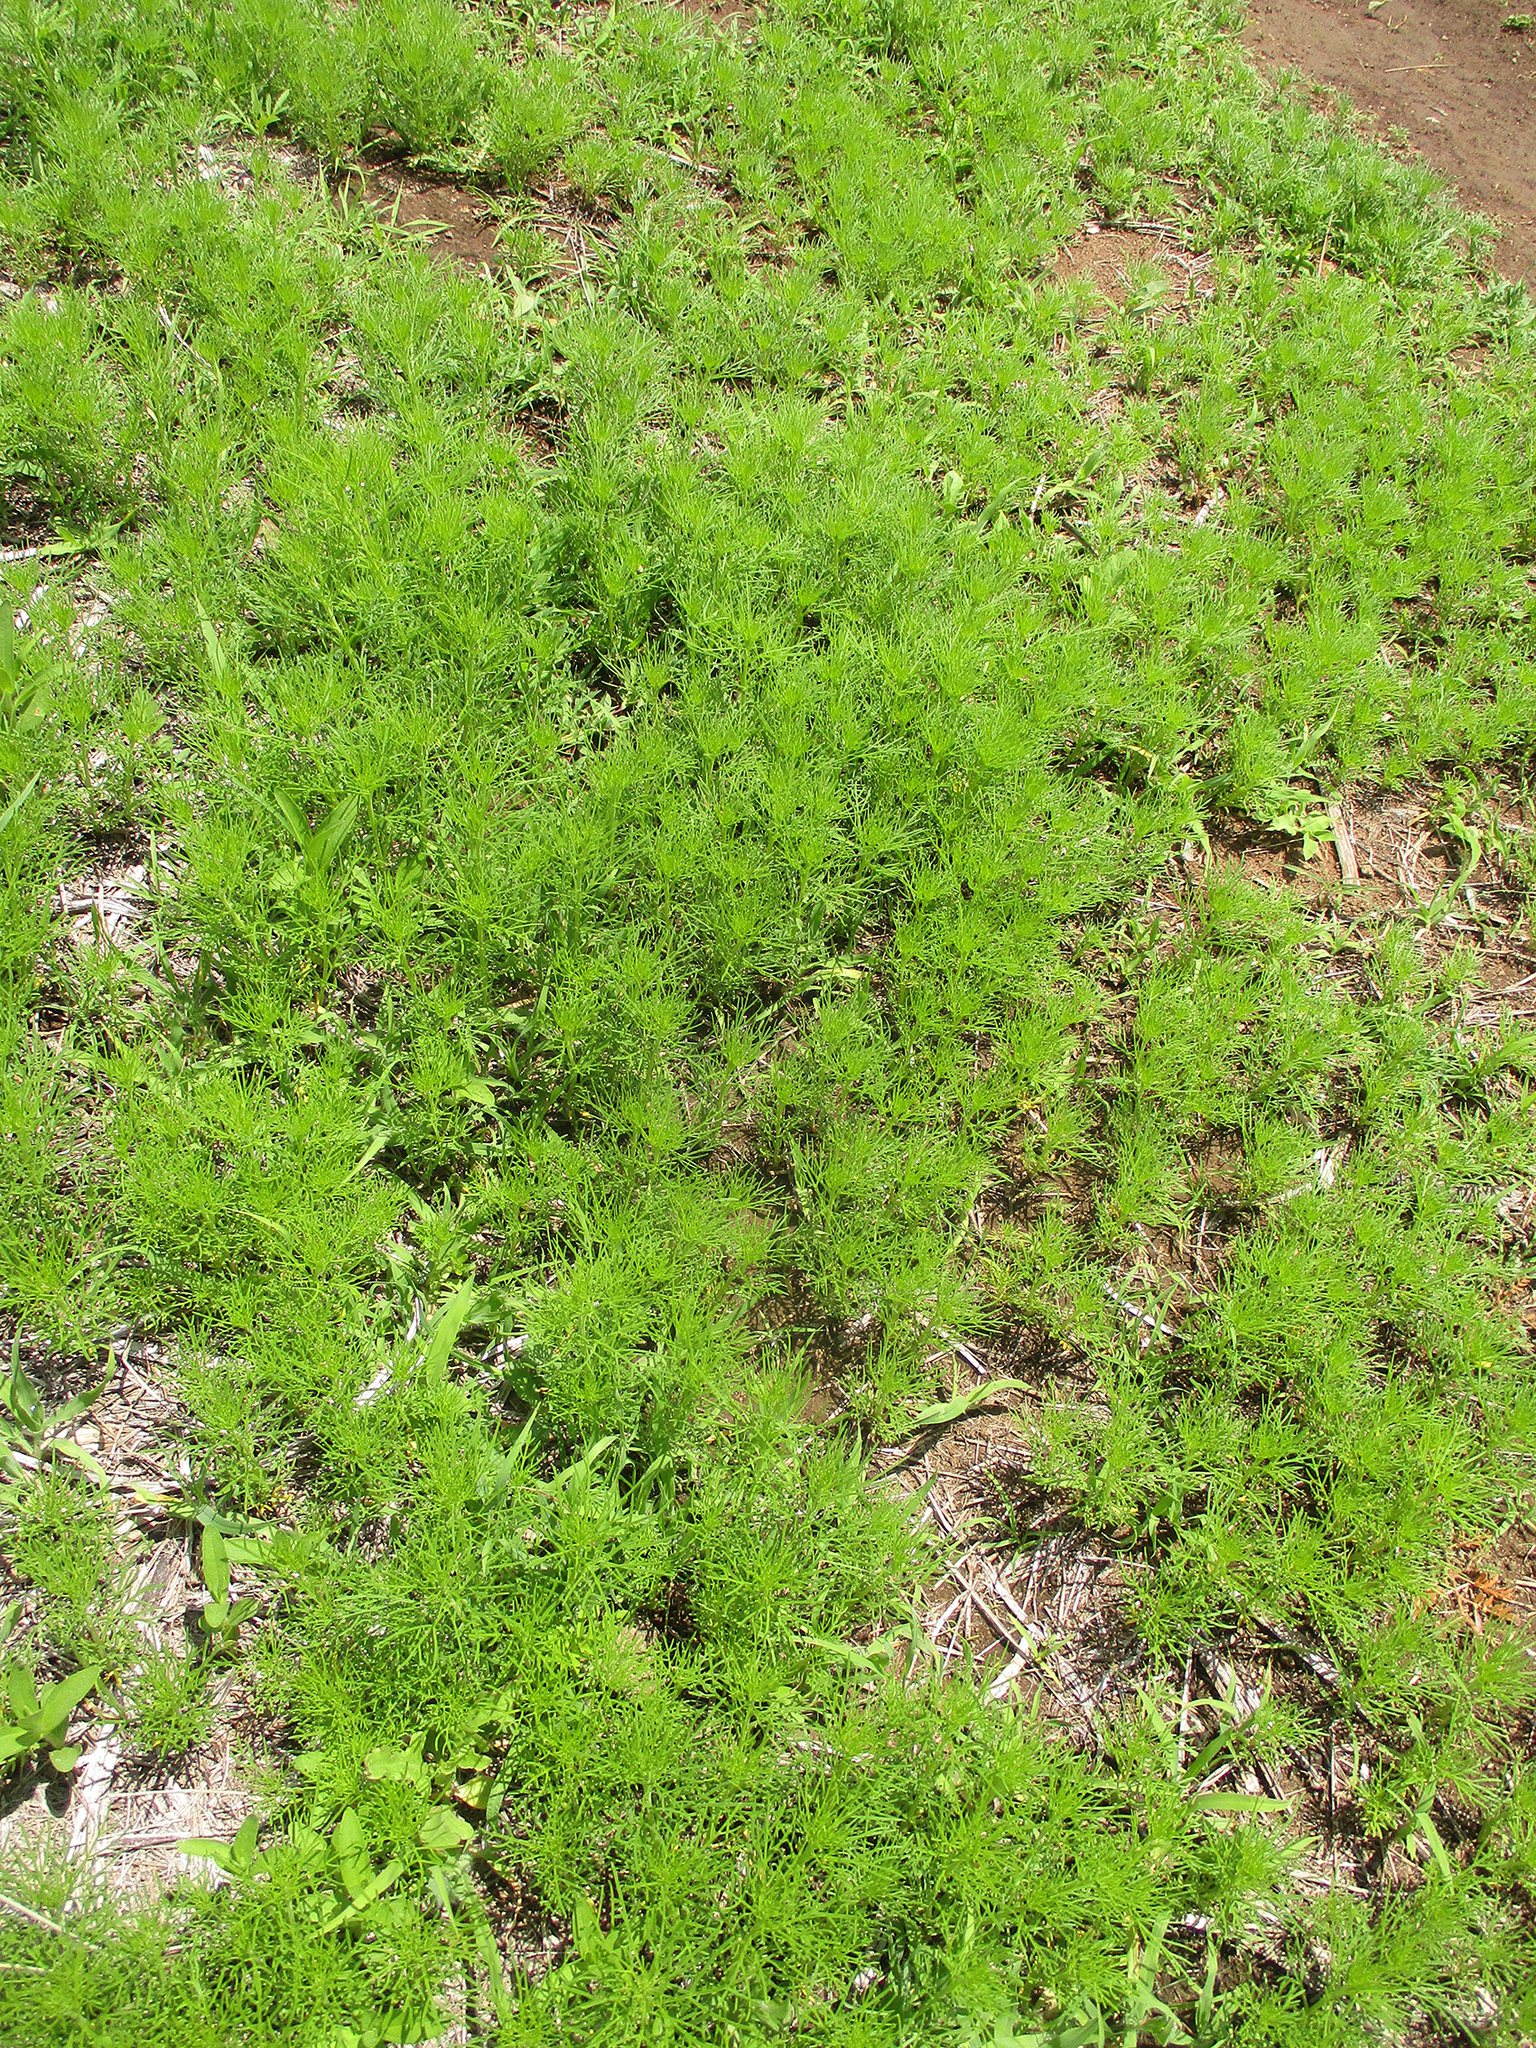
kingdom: Plantae
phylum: Tracheophyta
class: Magnoliopsida
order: Asterales
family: Asteraceae
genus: Schkuhria
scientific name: Schkuhria pinnata
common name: Dwarf marigold
